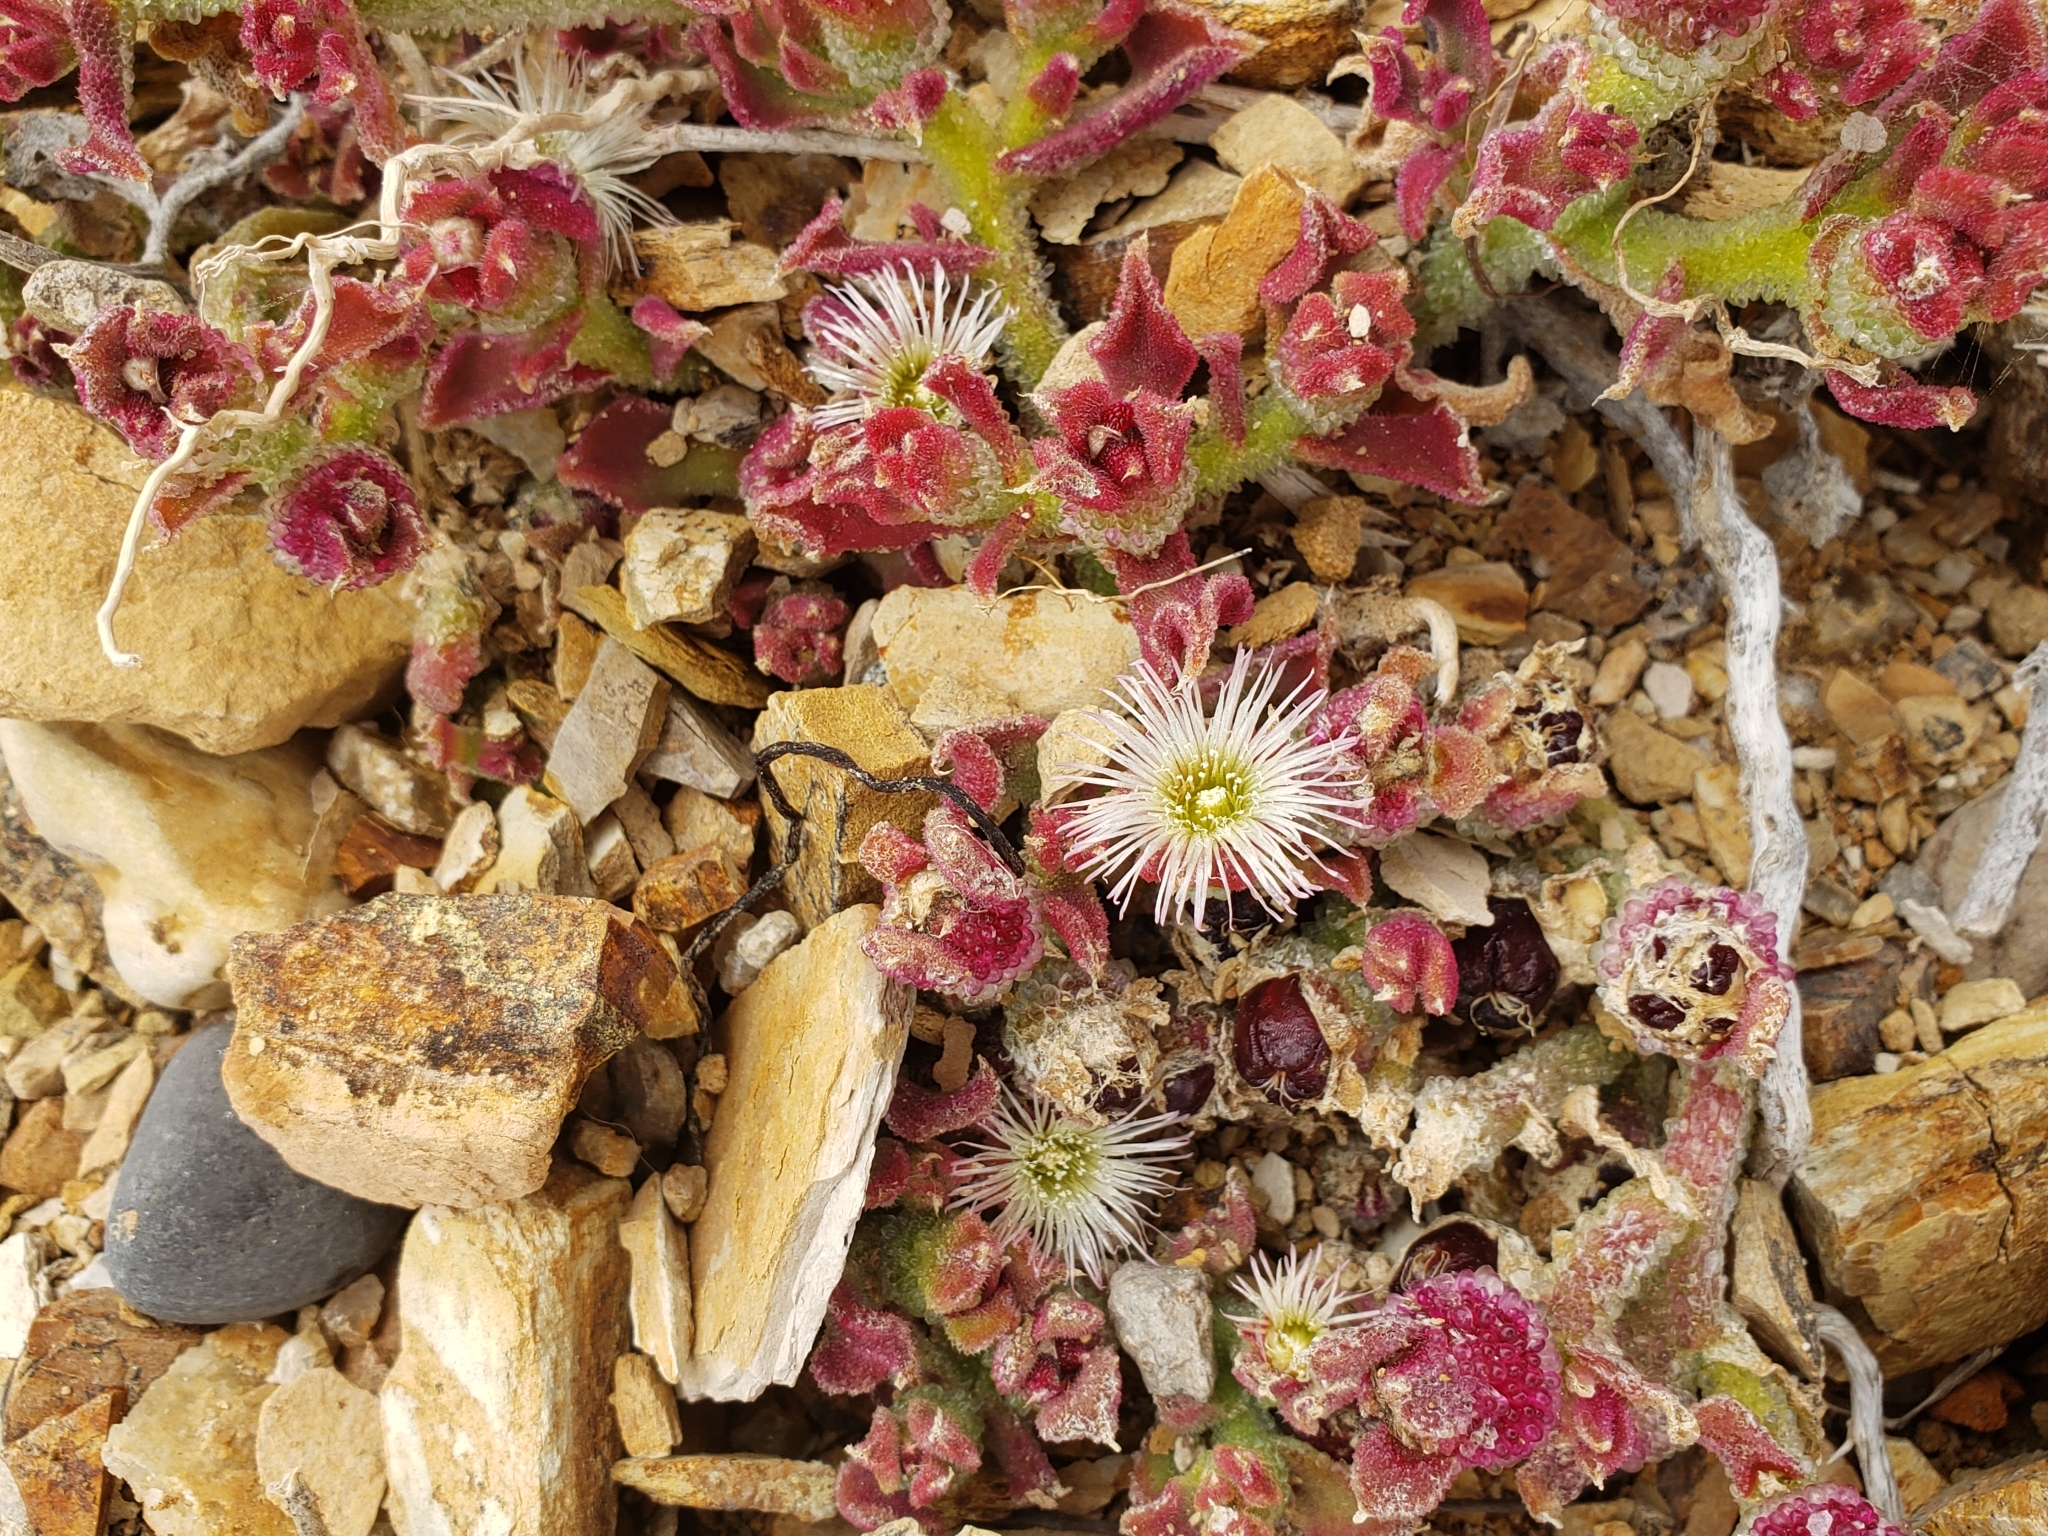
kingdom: Plantae
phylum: Tracheophyta
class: Magnoliopsida
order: Caryophyllales
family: Aizoaceae
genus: Mesembryanthemum
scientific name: Mesembryanthemum crystallinum
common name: Common iceplant
